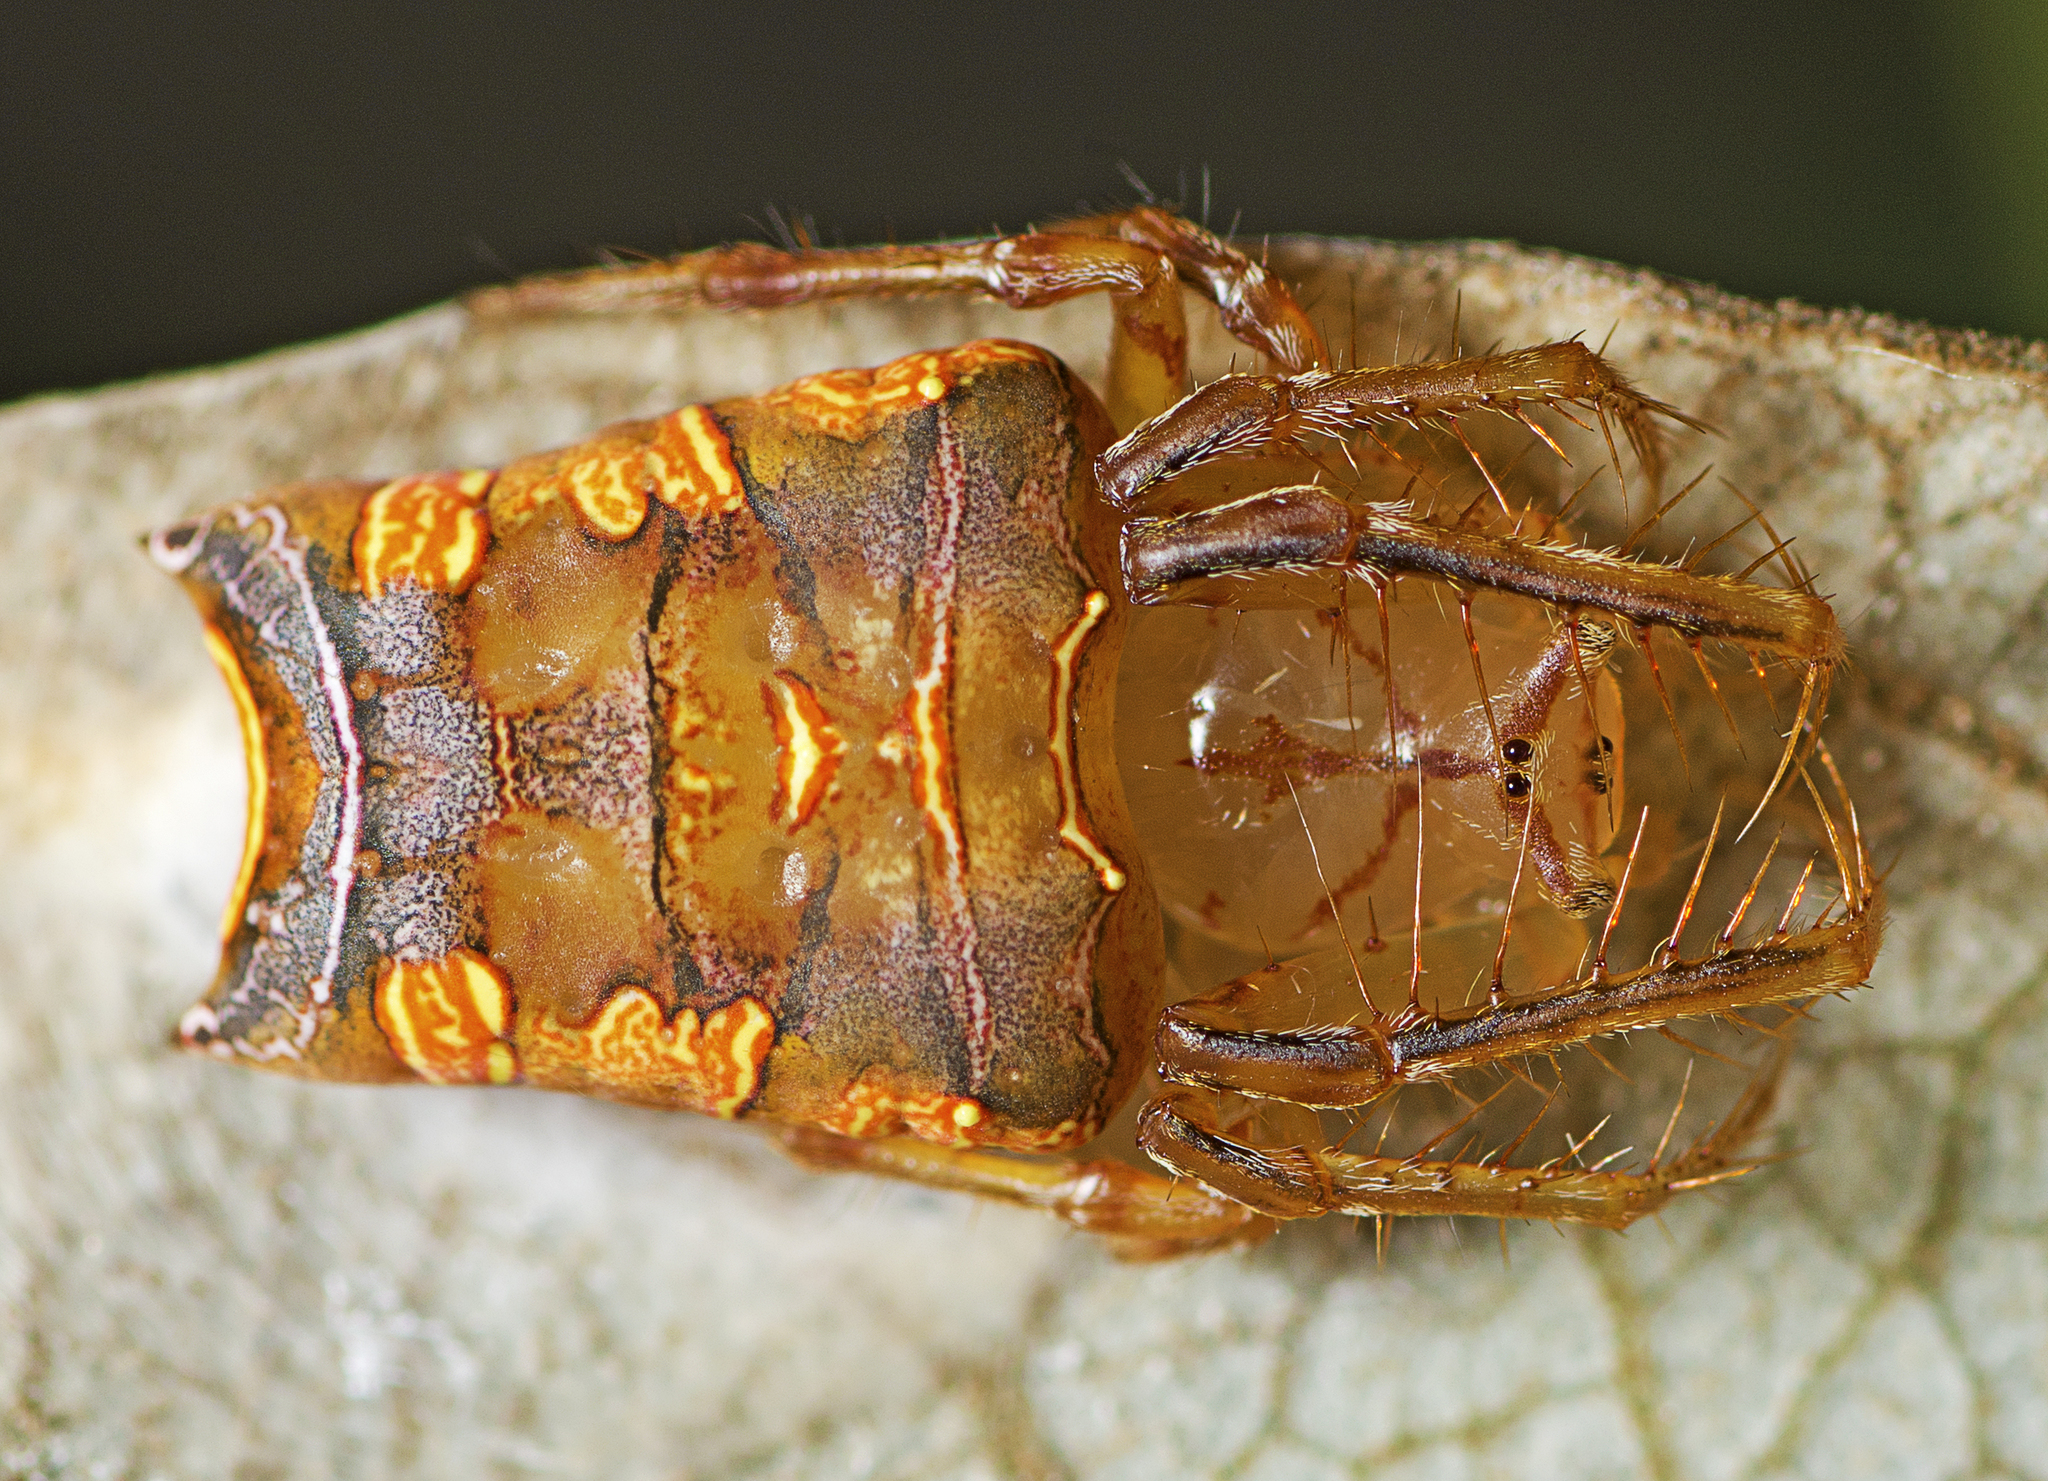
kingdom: Animalia
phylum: Arthropoda
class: Arachnida
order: Araneae
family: Arkyidae
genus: Arkys
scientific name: Arkys furcatus
